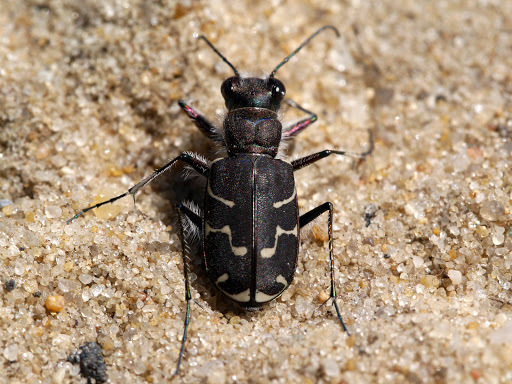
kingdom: Animalia
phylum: Arthropoda
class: Insecta
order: Coleoptera
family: Carabidae
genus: Cicindela
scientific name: Cicindela tranquebarica
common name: Oblique-lined tiger beetle
